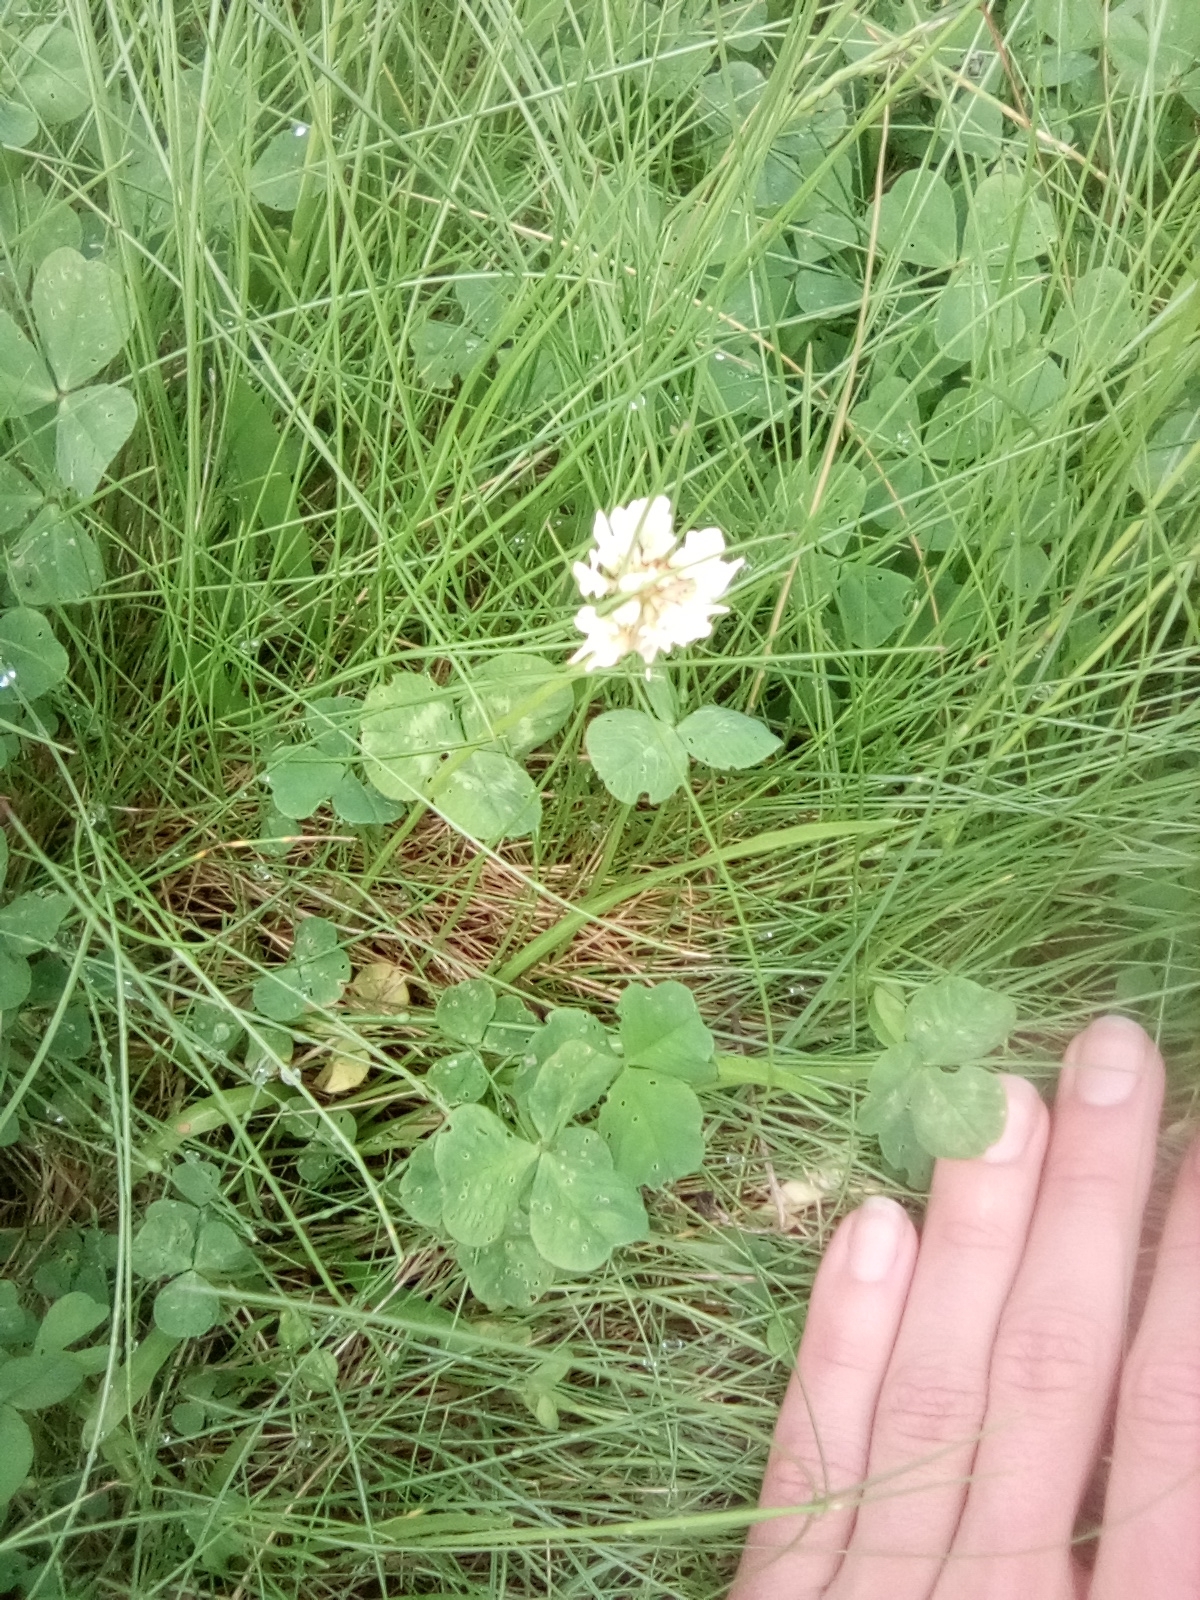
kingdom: Plantae
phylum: Tracheophyta
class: Magnoliopsida
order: Fabales
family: Fabaceae
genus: Trifolium
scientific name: Trifolium repens
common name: White clover
